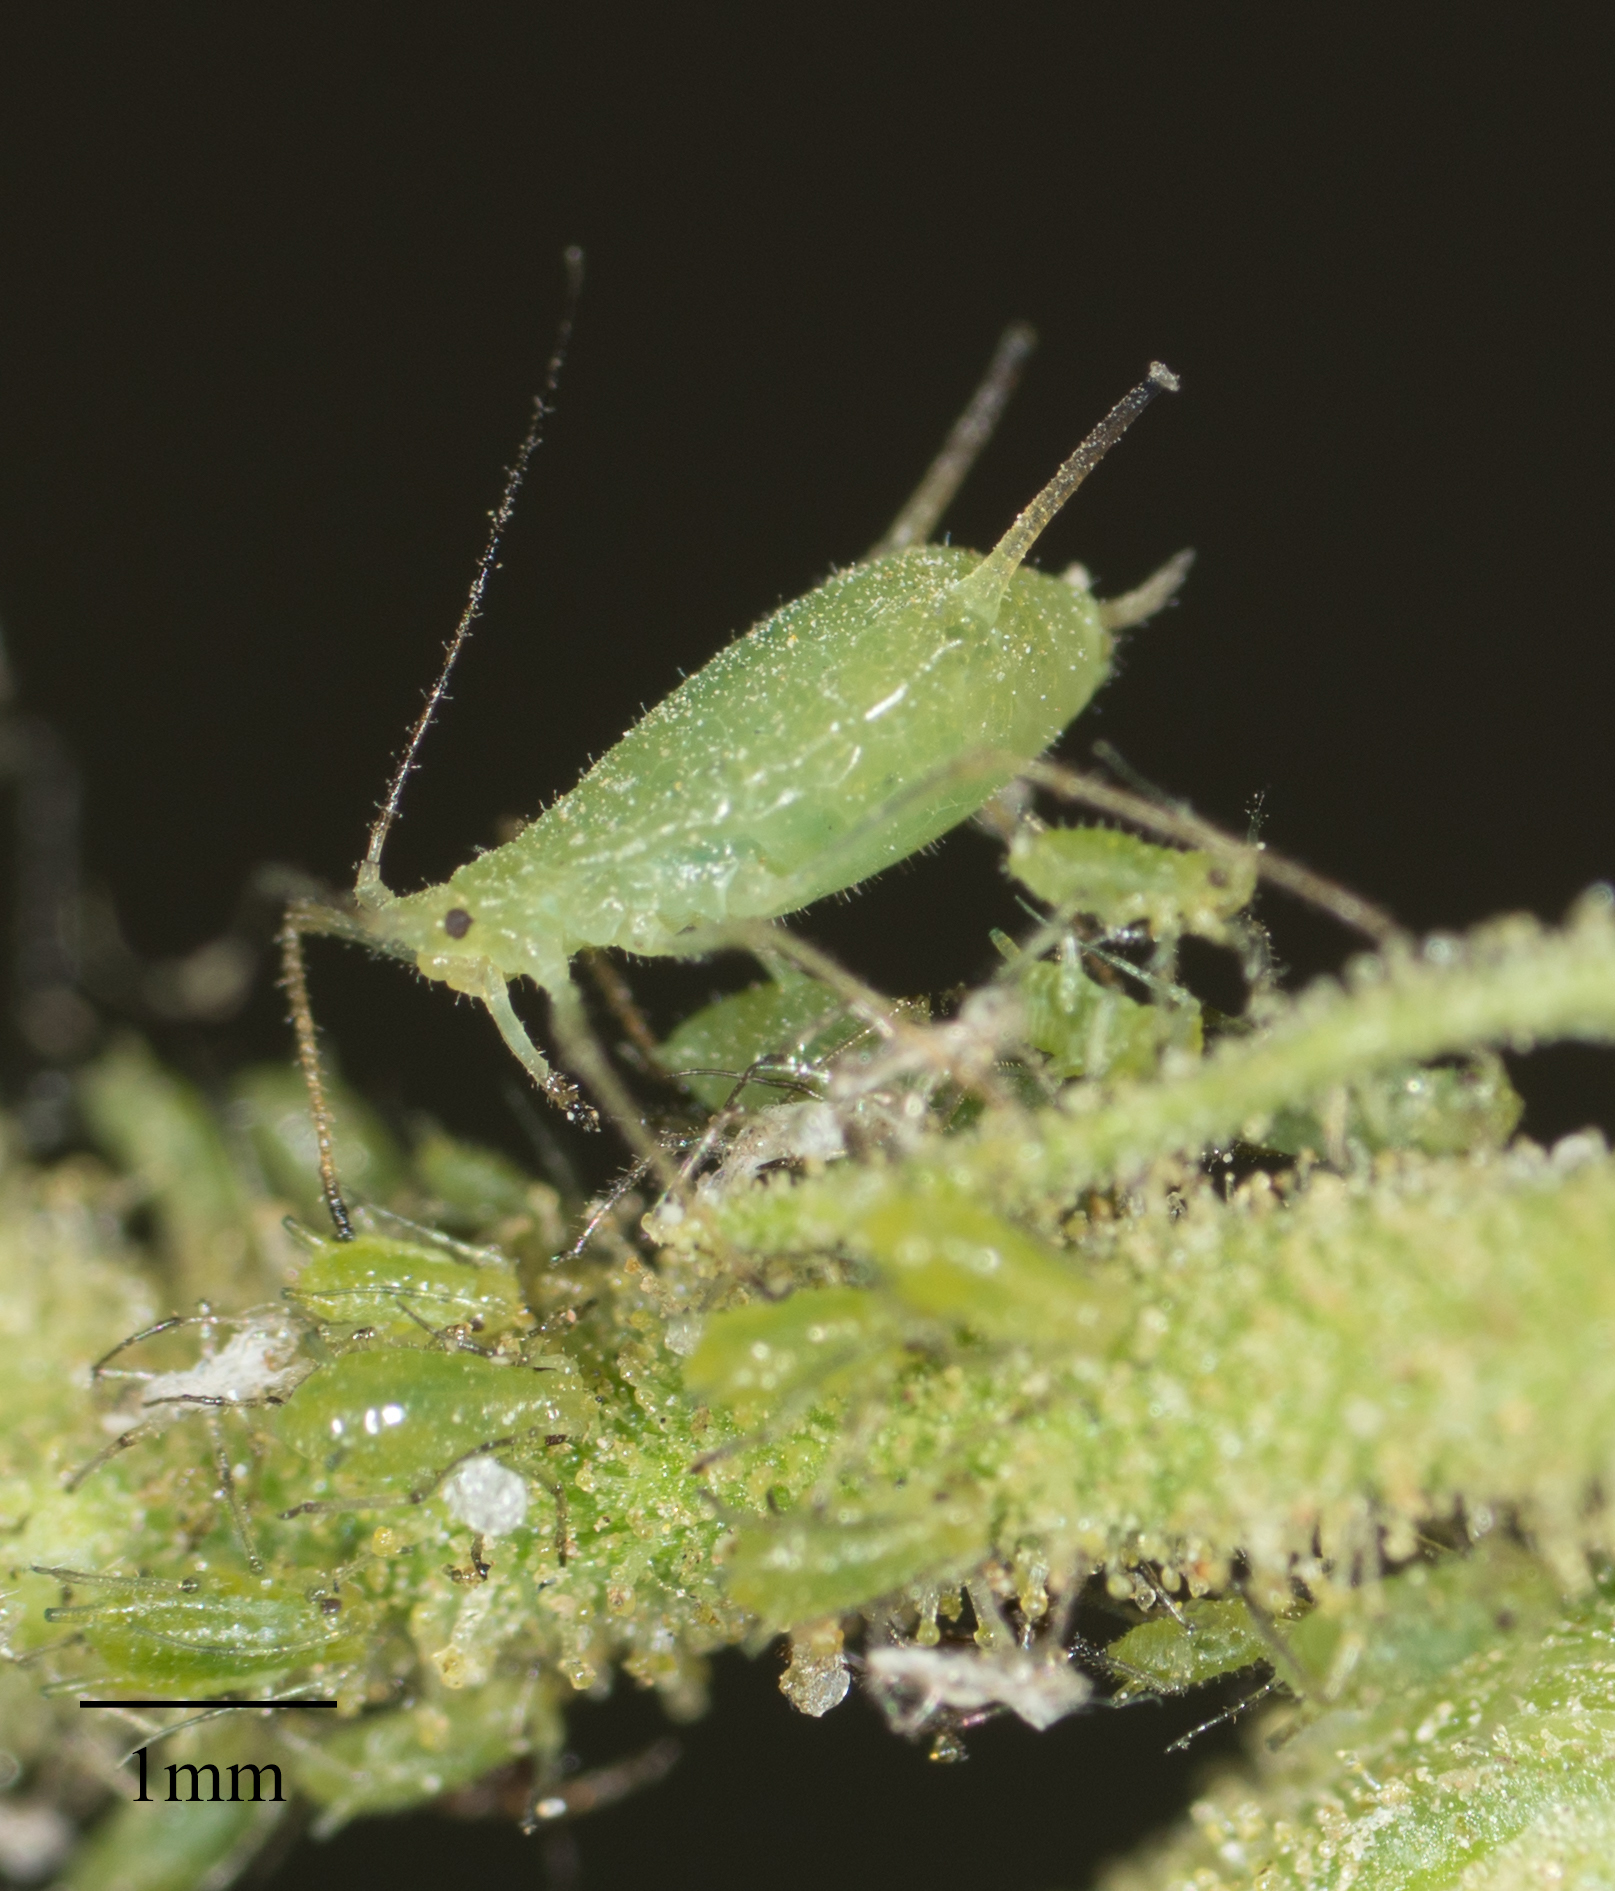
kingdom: Animalia
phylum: Arthropoda
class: Insecta
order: Hemiptera
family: Aphididae
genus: Uroleucon
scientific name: Uroleucon erigeronense
